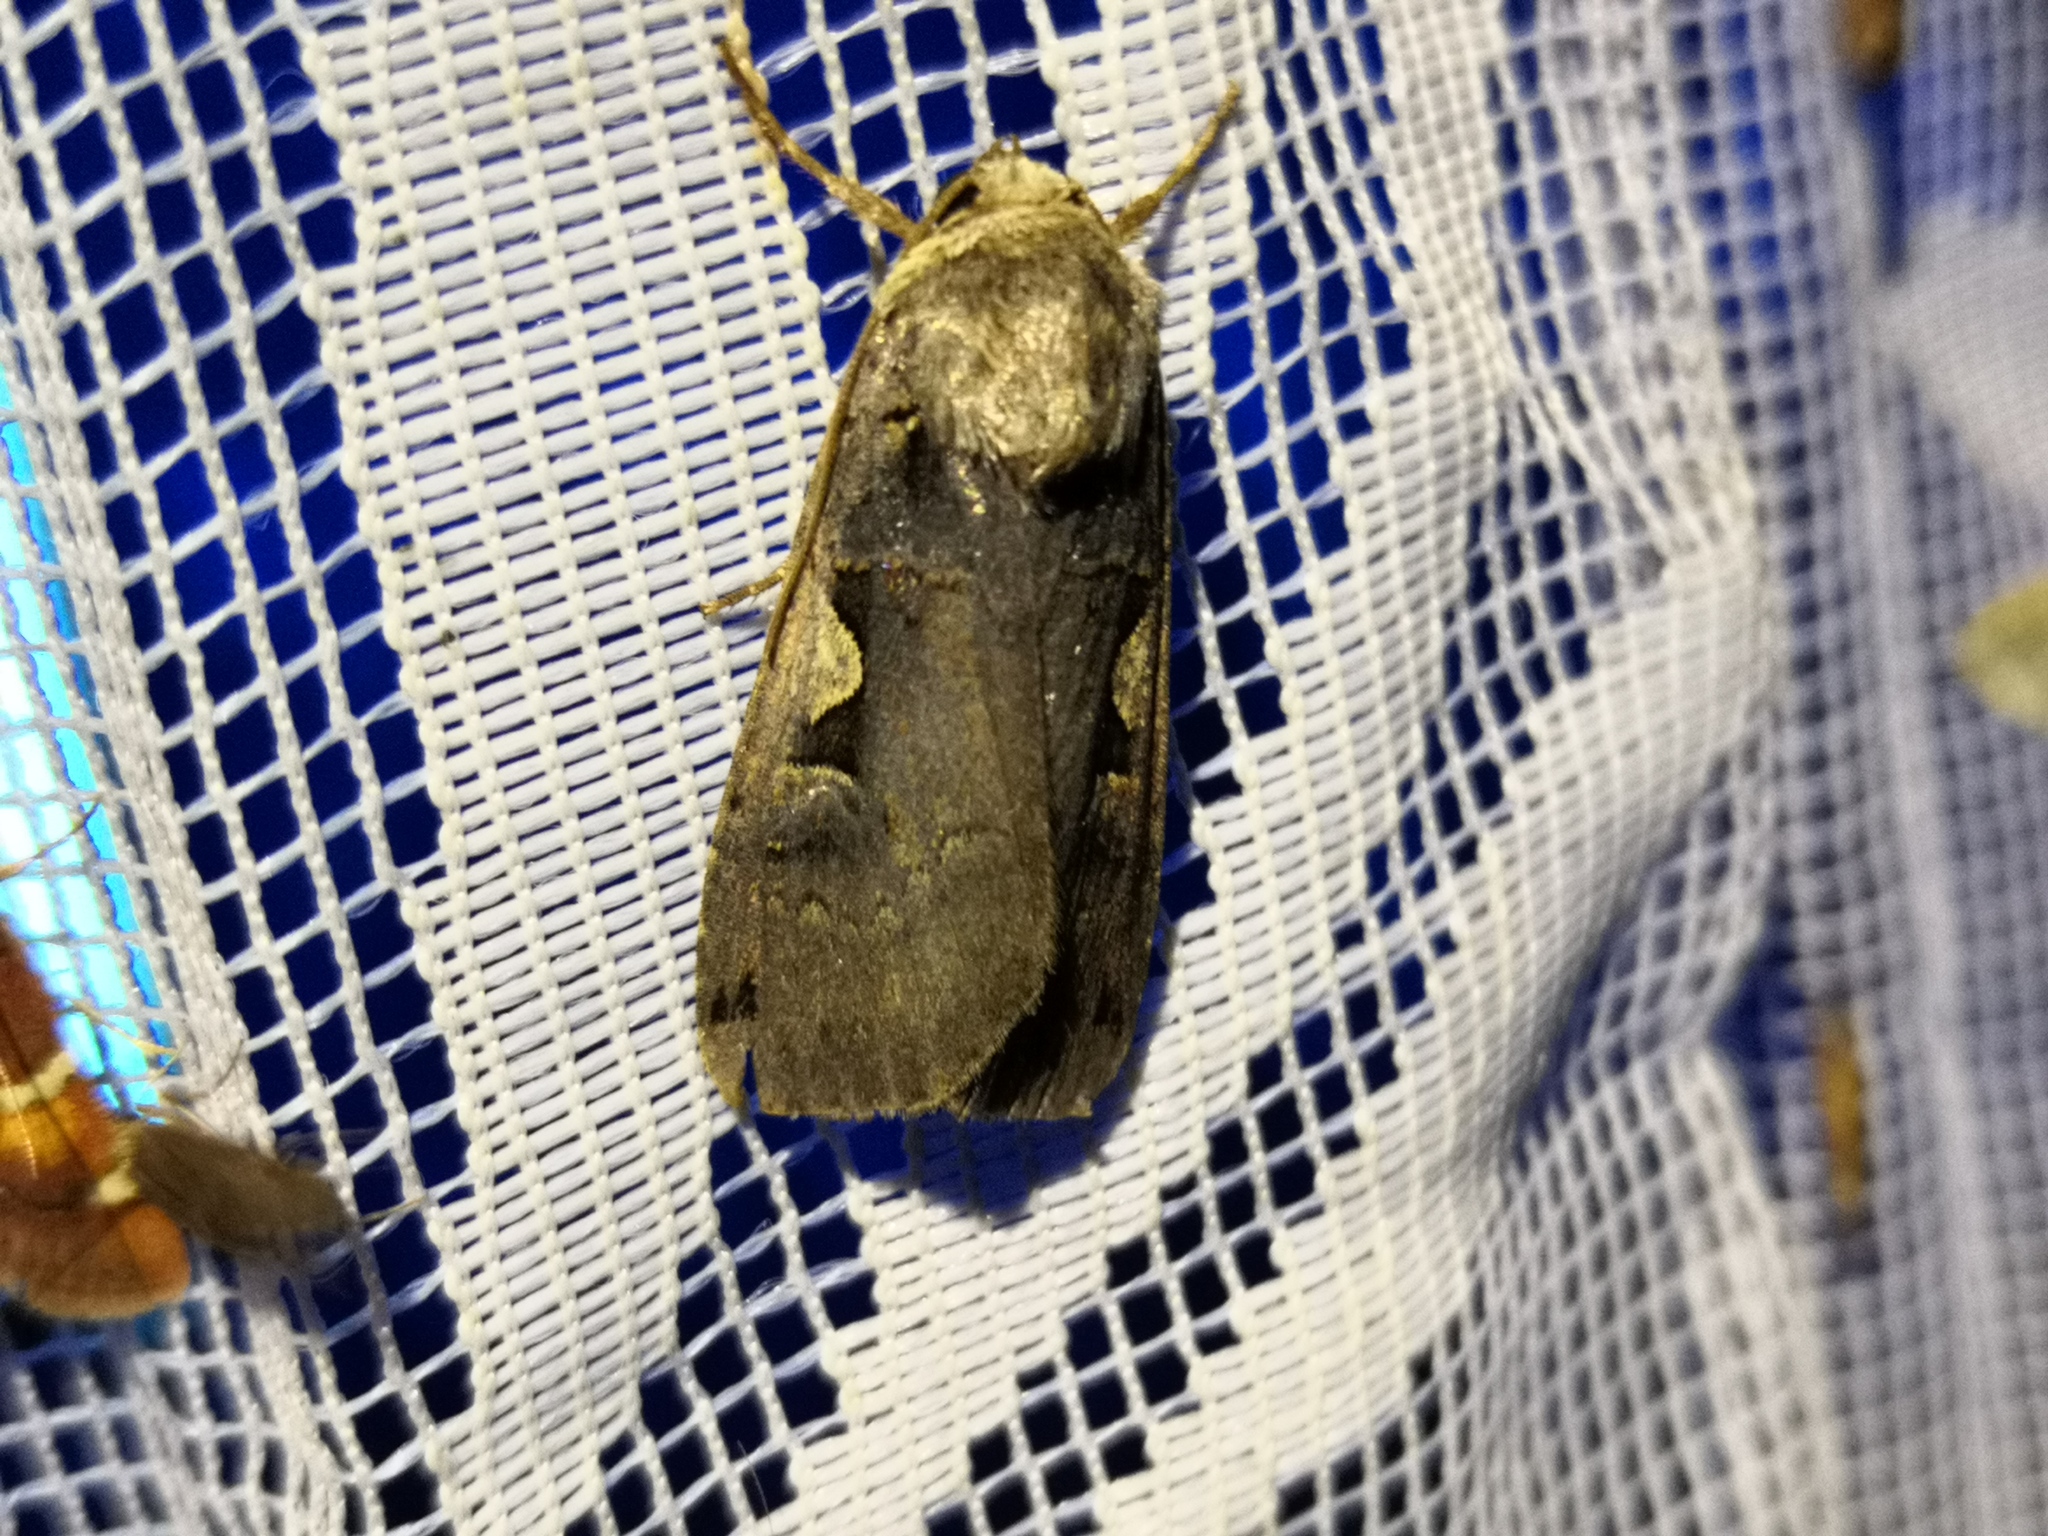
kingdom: Animalia
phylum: Arthropoda
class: Insecta
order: Lepidoptera
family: Noctuidae
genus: Xestia
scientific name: Xestia c-nigrum
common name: Setaceous hebrew character
